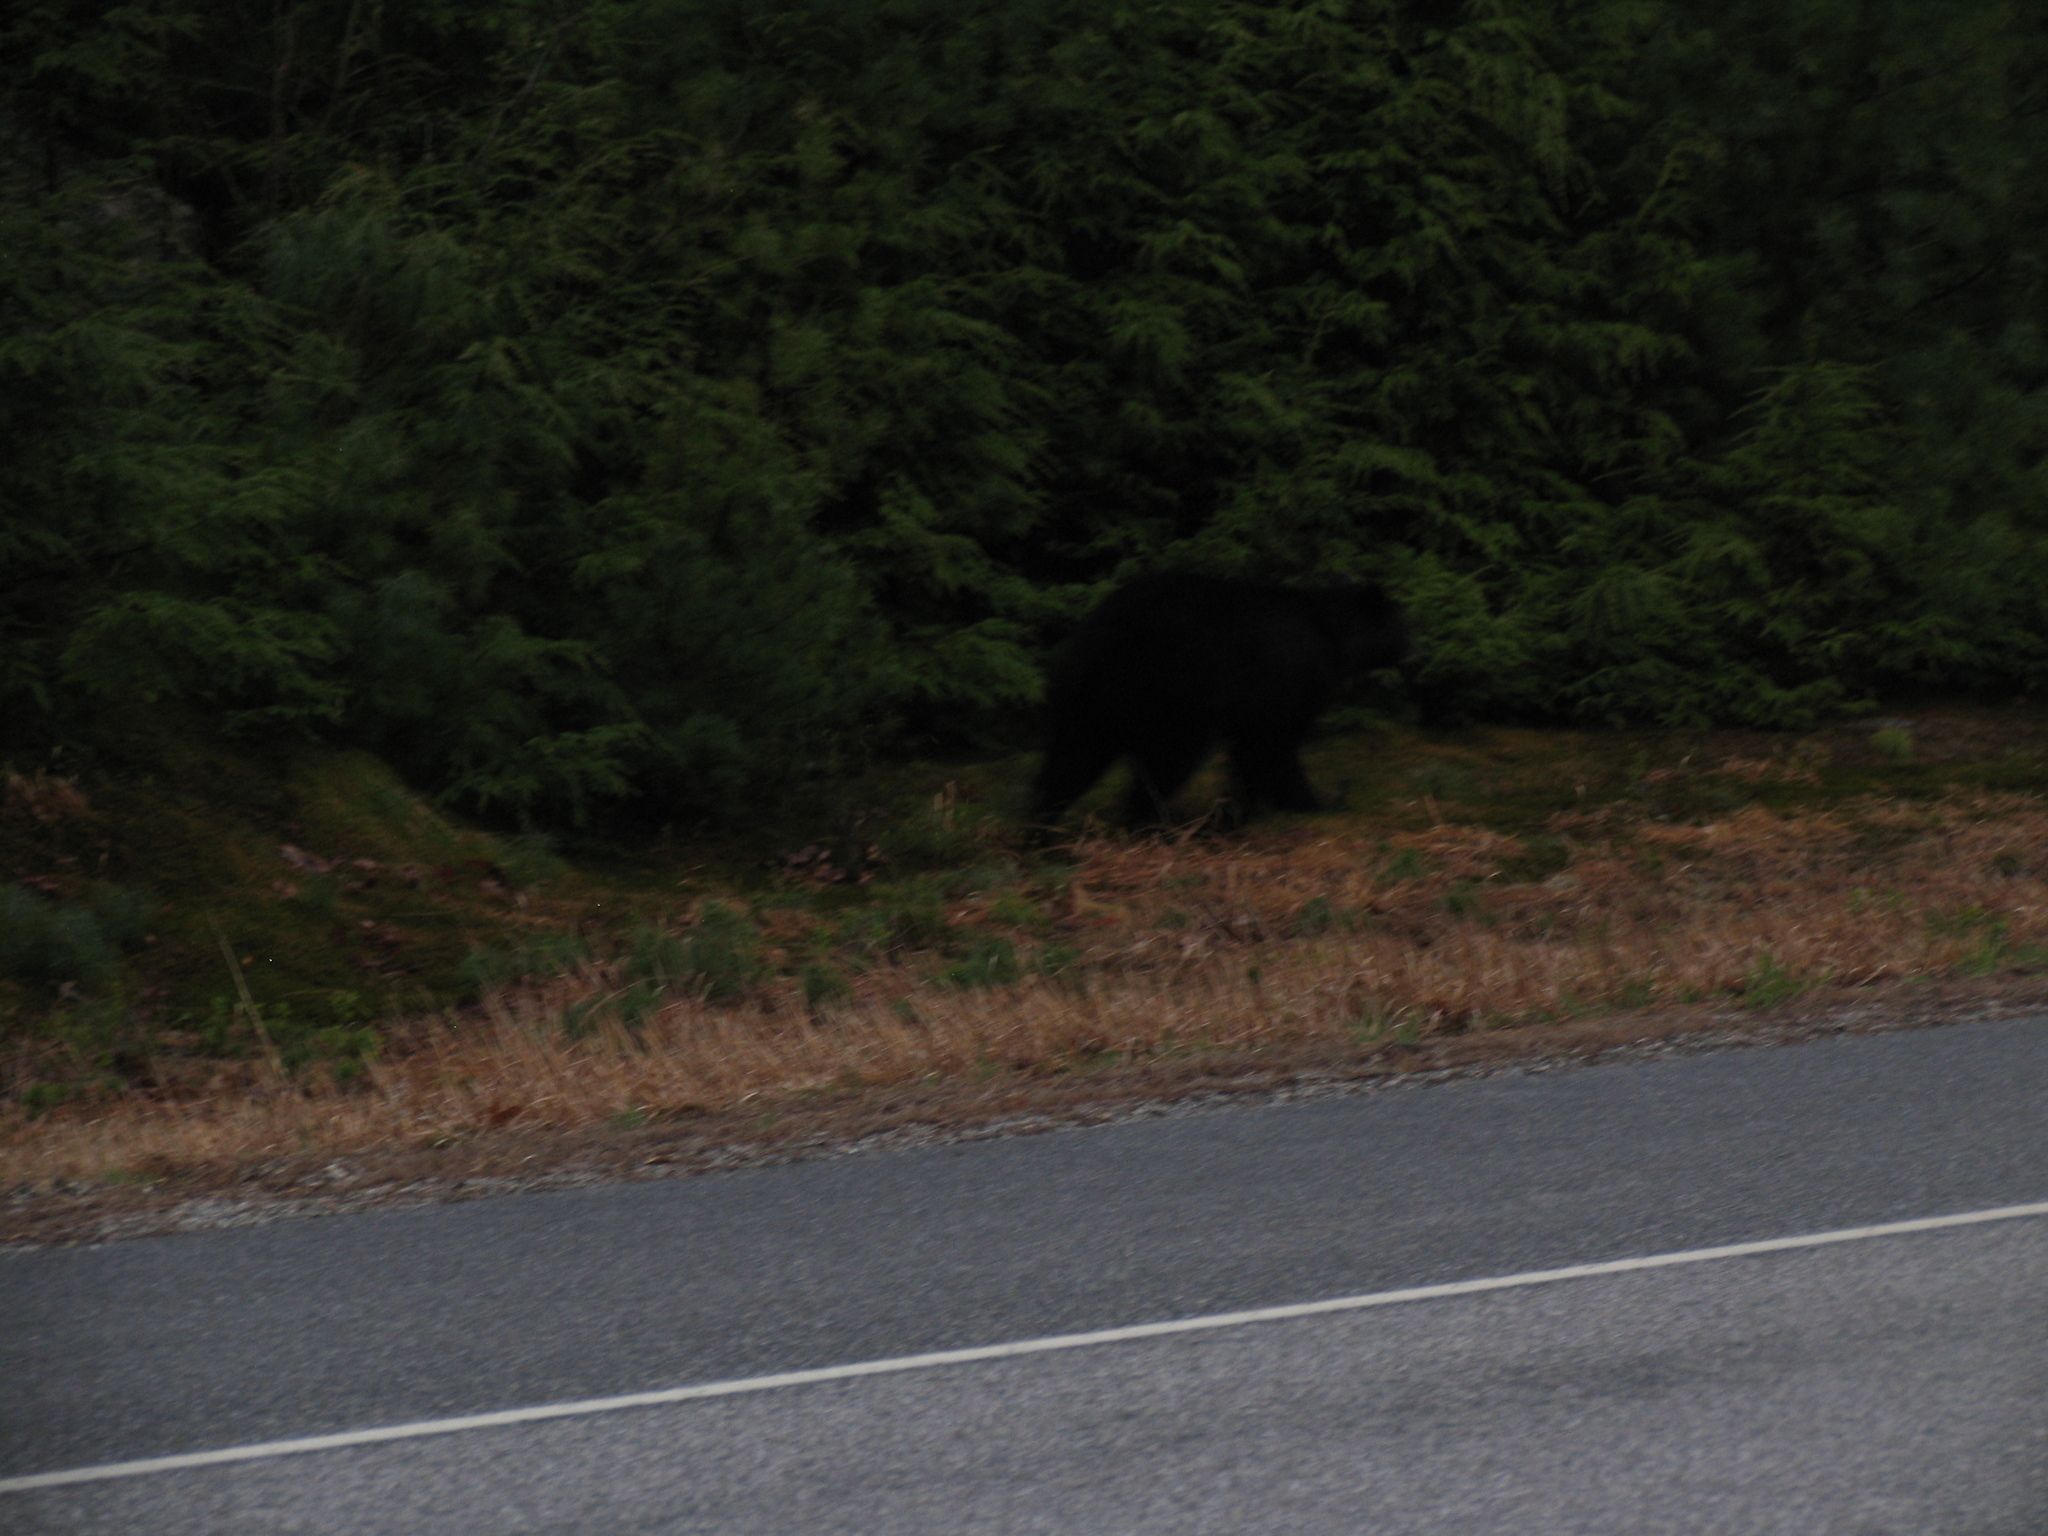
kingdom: Animalia
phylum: Chordata
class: Mammalia
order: Carnivora
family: Ursidae
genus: Ursus
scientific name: Ursus americanus
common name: American black bear
